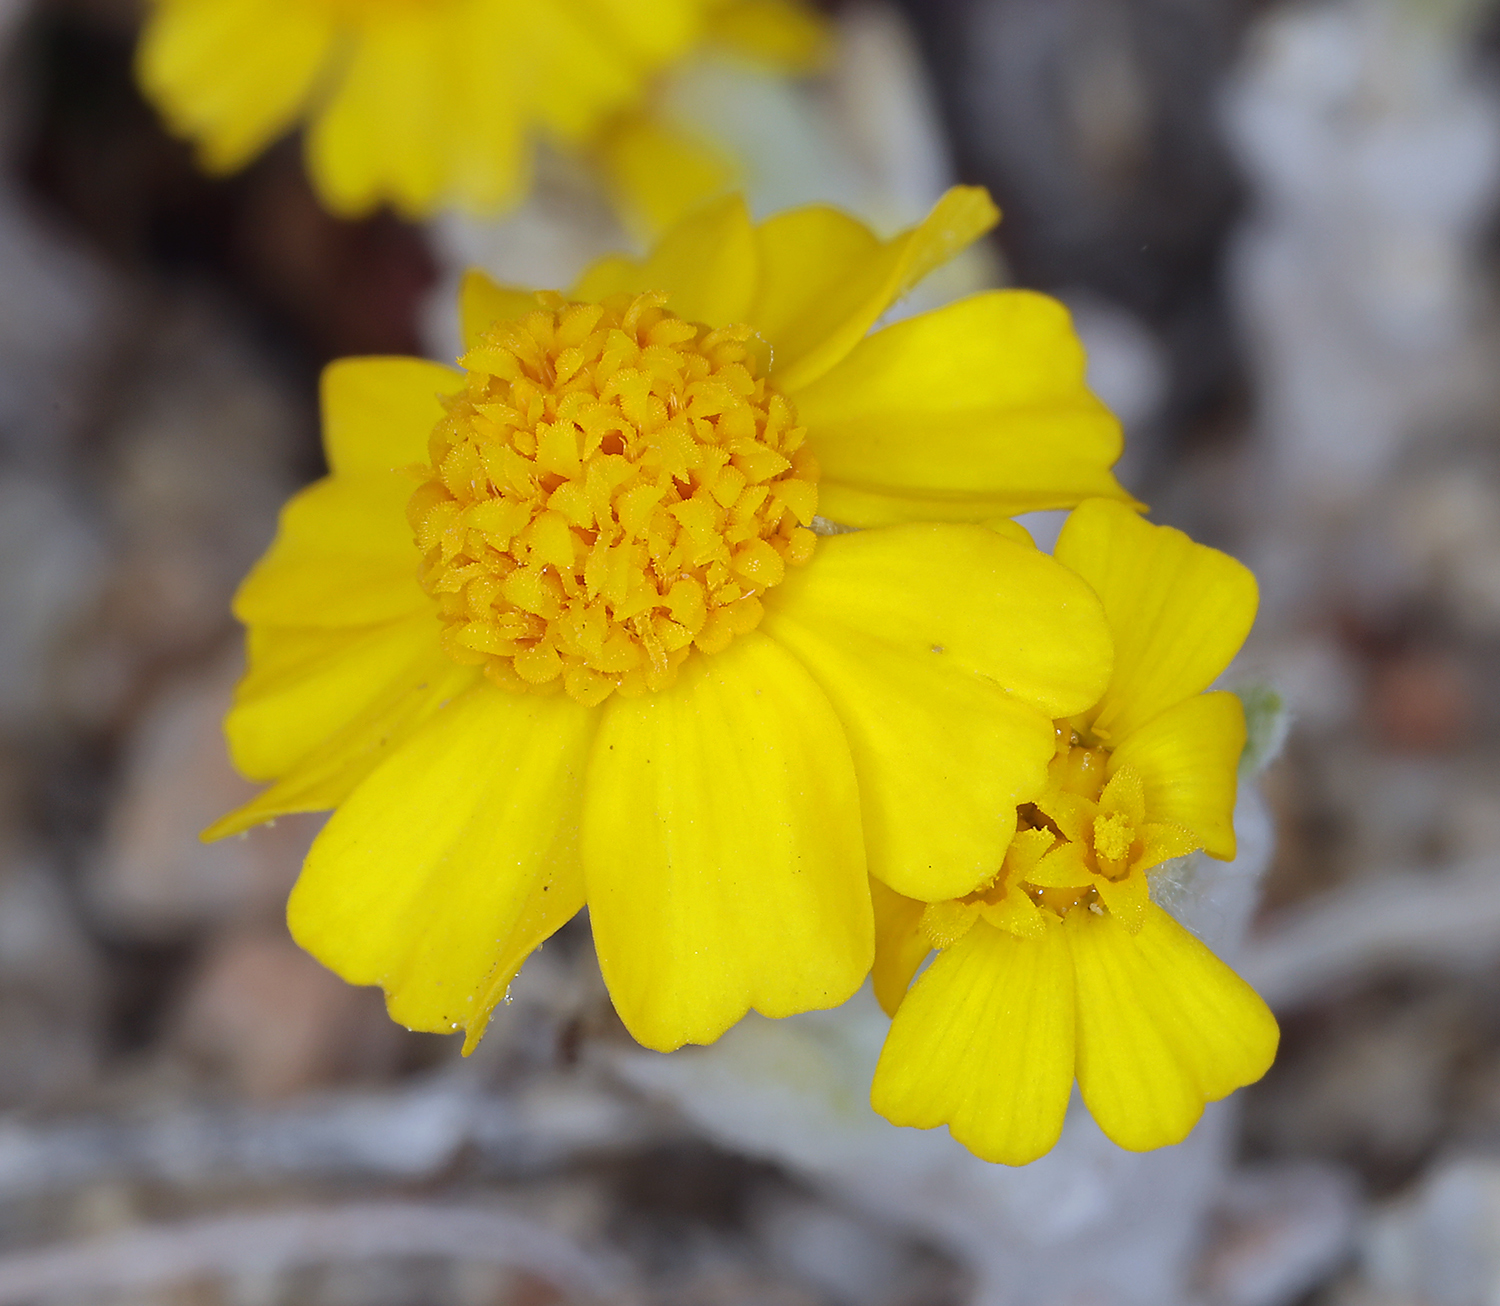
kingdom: Plantae
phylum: Tracheophyta
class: Magnoliopsida
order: Asterales
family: Asteraceae
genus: Eriophyllum
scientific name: Eriophyllum wallacei
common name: Wallace's woolly daisy
